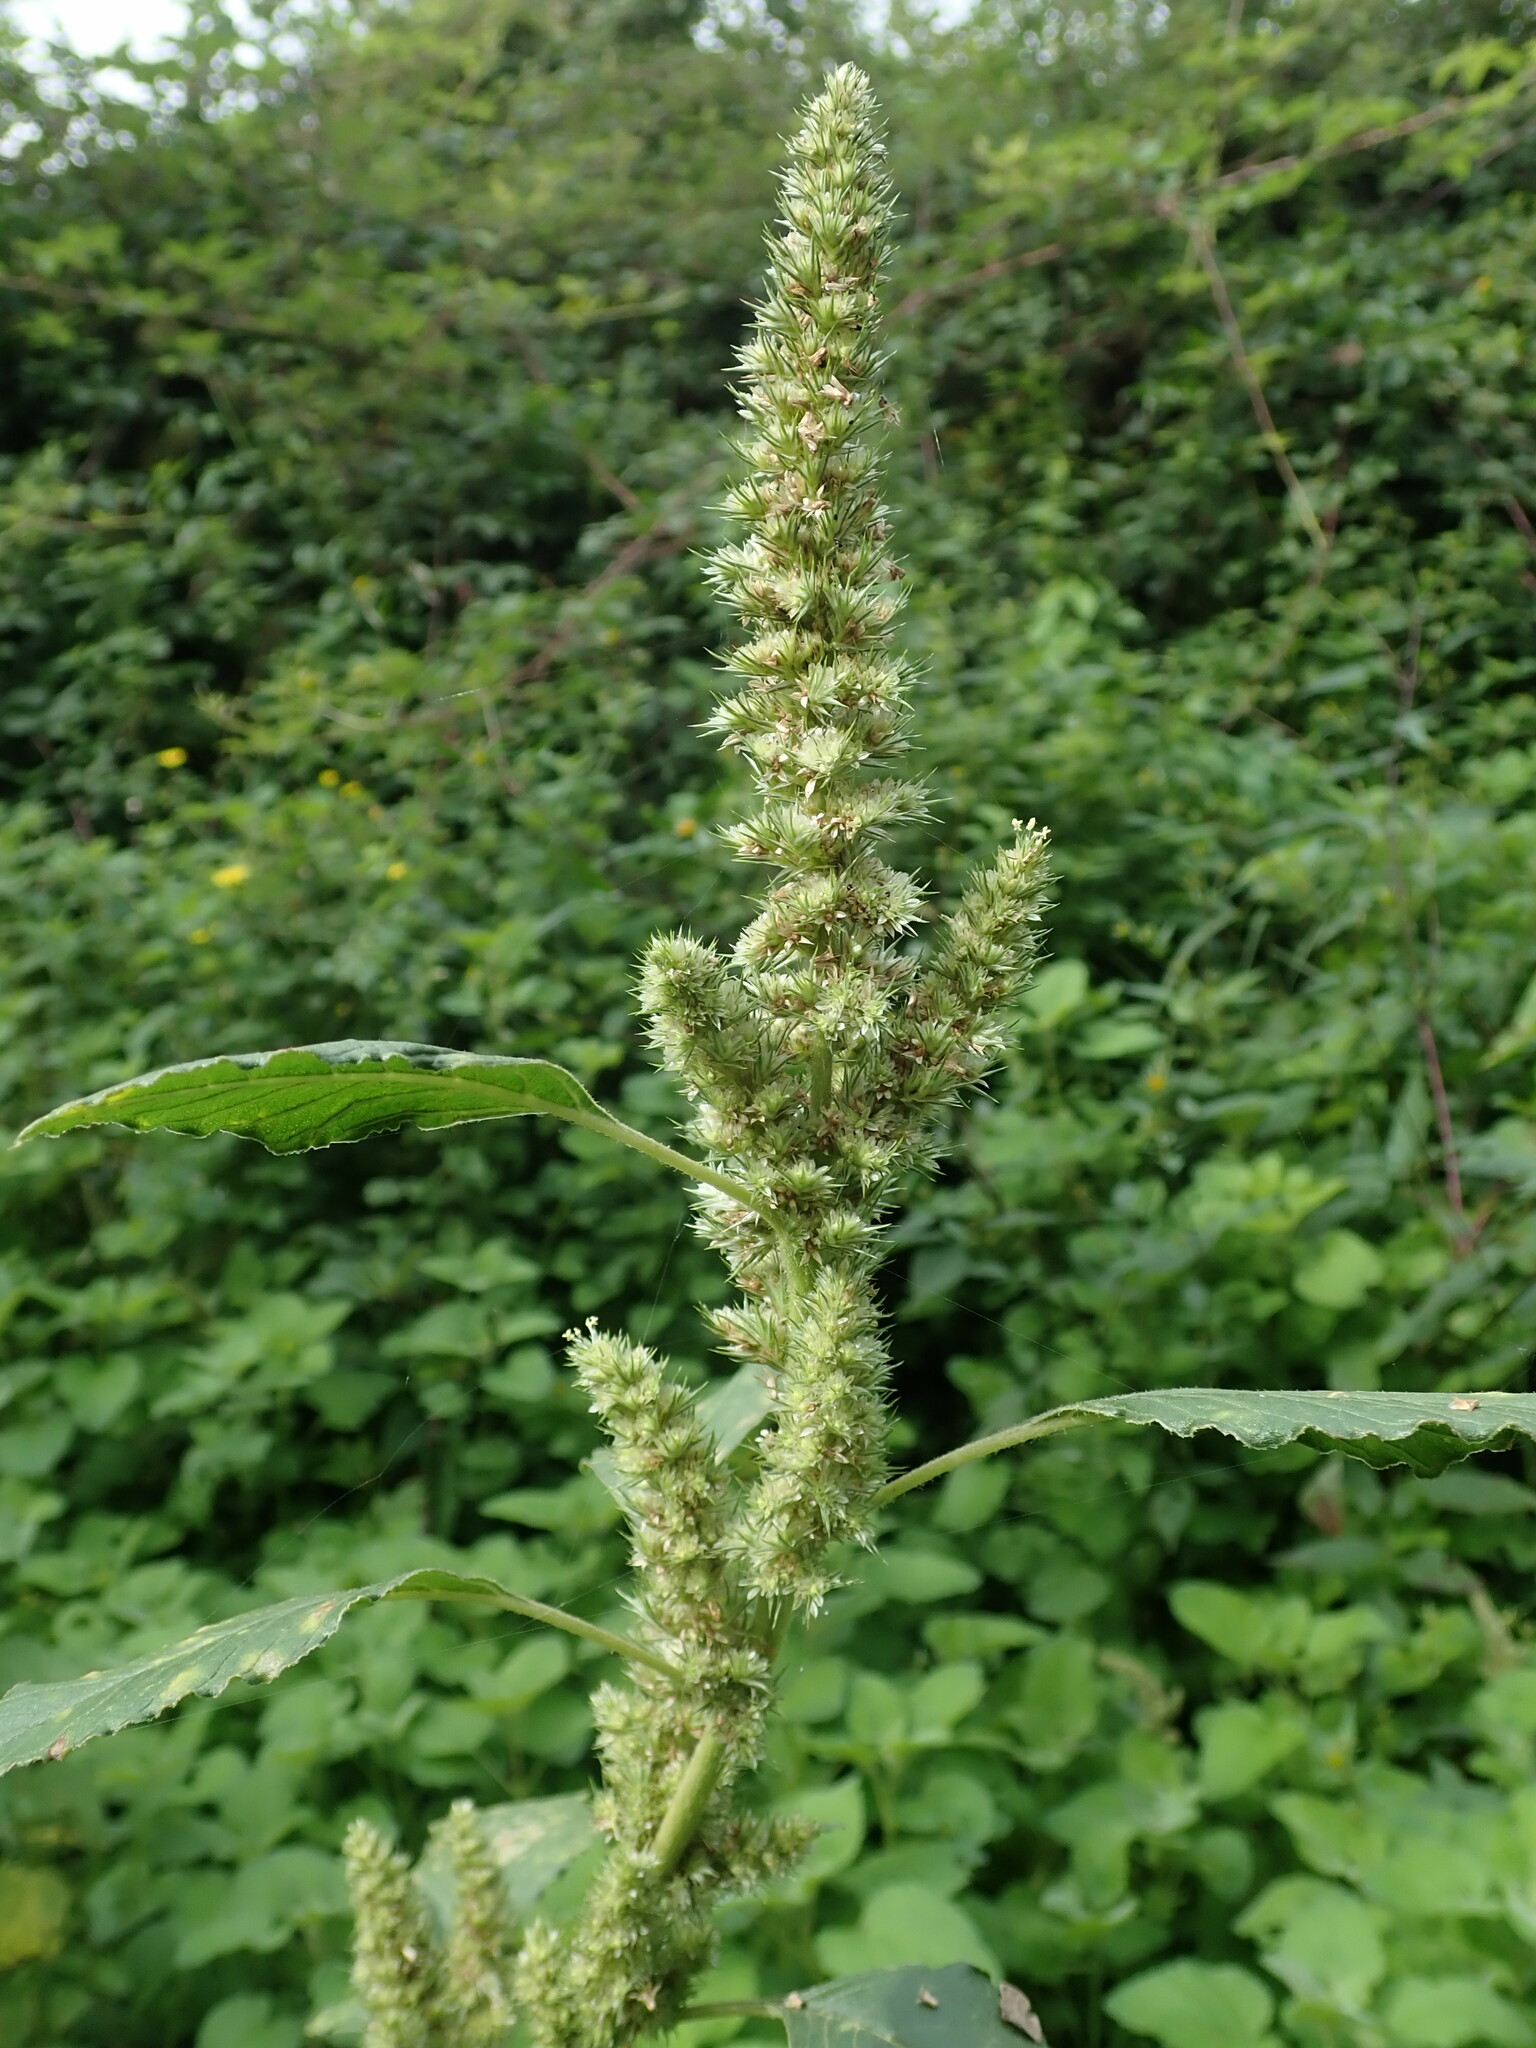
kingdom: Plantae
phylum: Tracheophyta
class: Magnoliopsida
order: Caryophyllales
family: Amaranthaceae
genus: Amaranthus
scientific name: Amaranthus retroflexus
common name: Redroot amaranth
